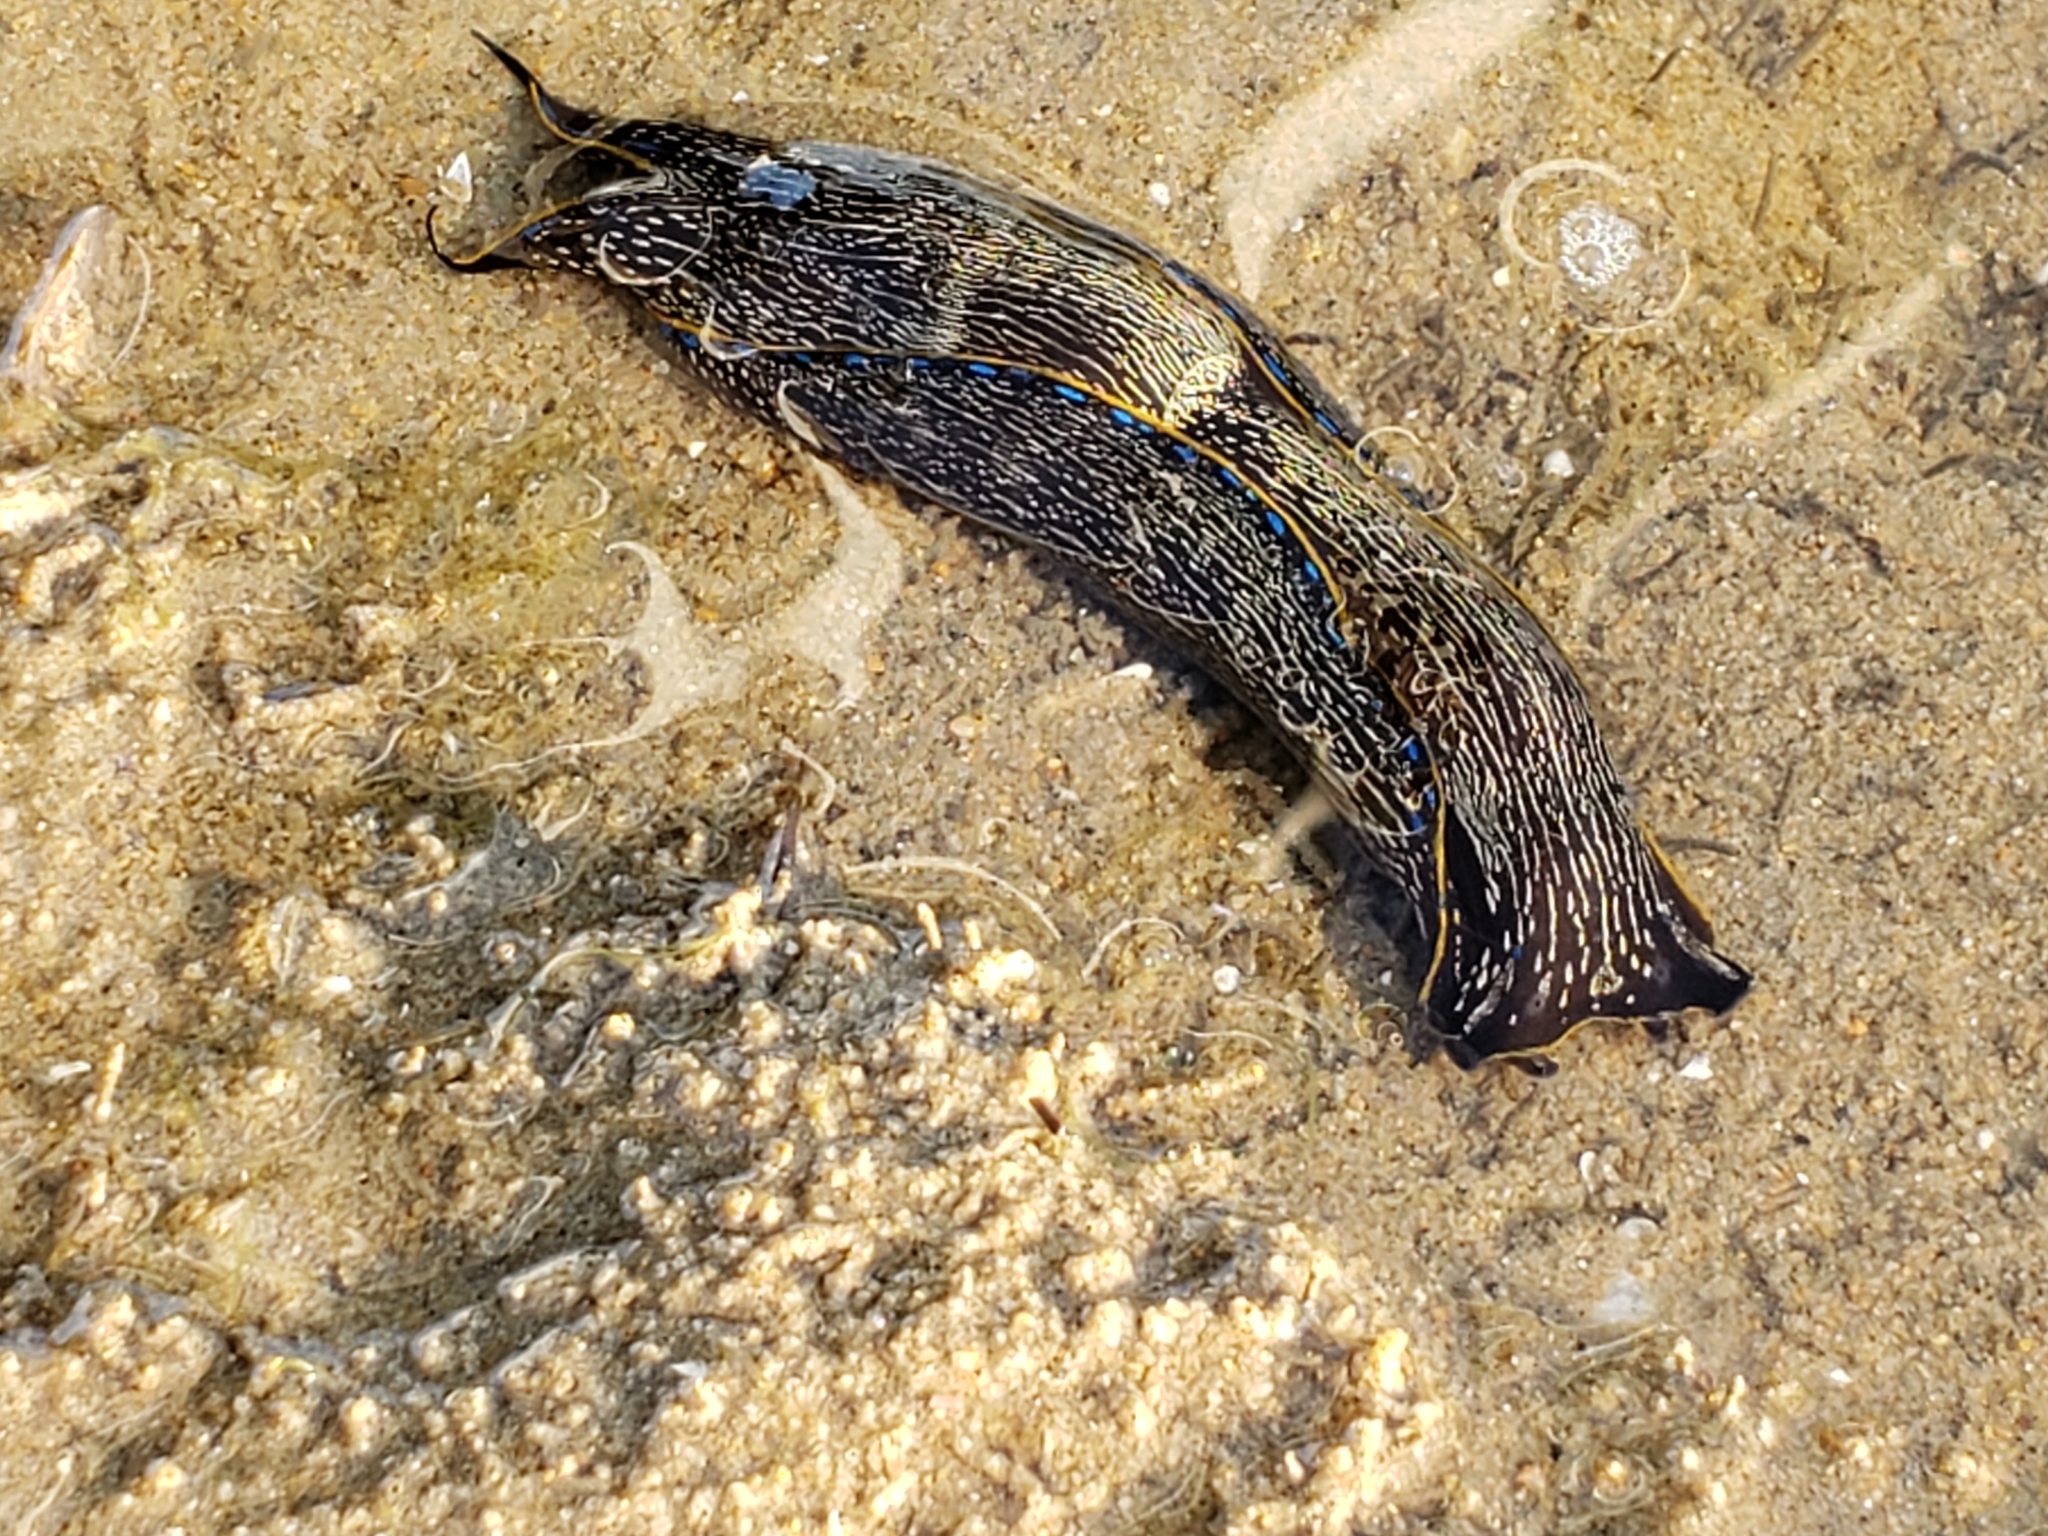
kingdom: Animalia
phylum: Mollusca
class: Gastropoda
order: Cephalaspidea
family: Aglajidae
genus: Navanax
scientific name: Navanax inermis
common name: California aglaja
